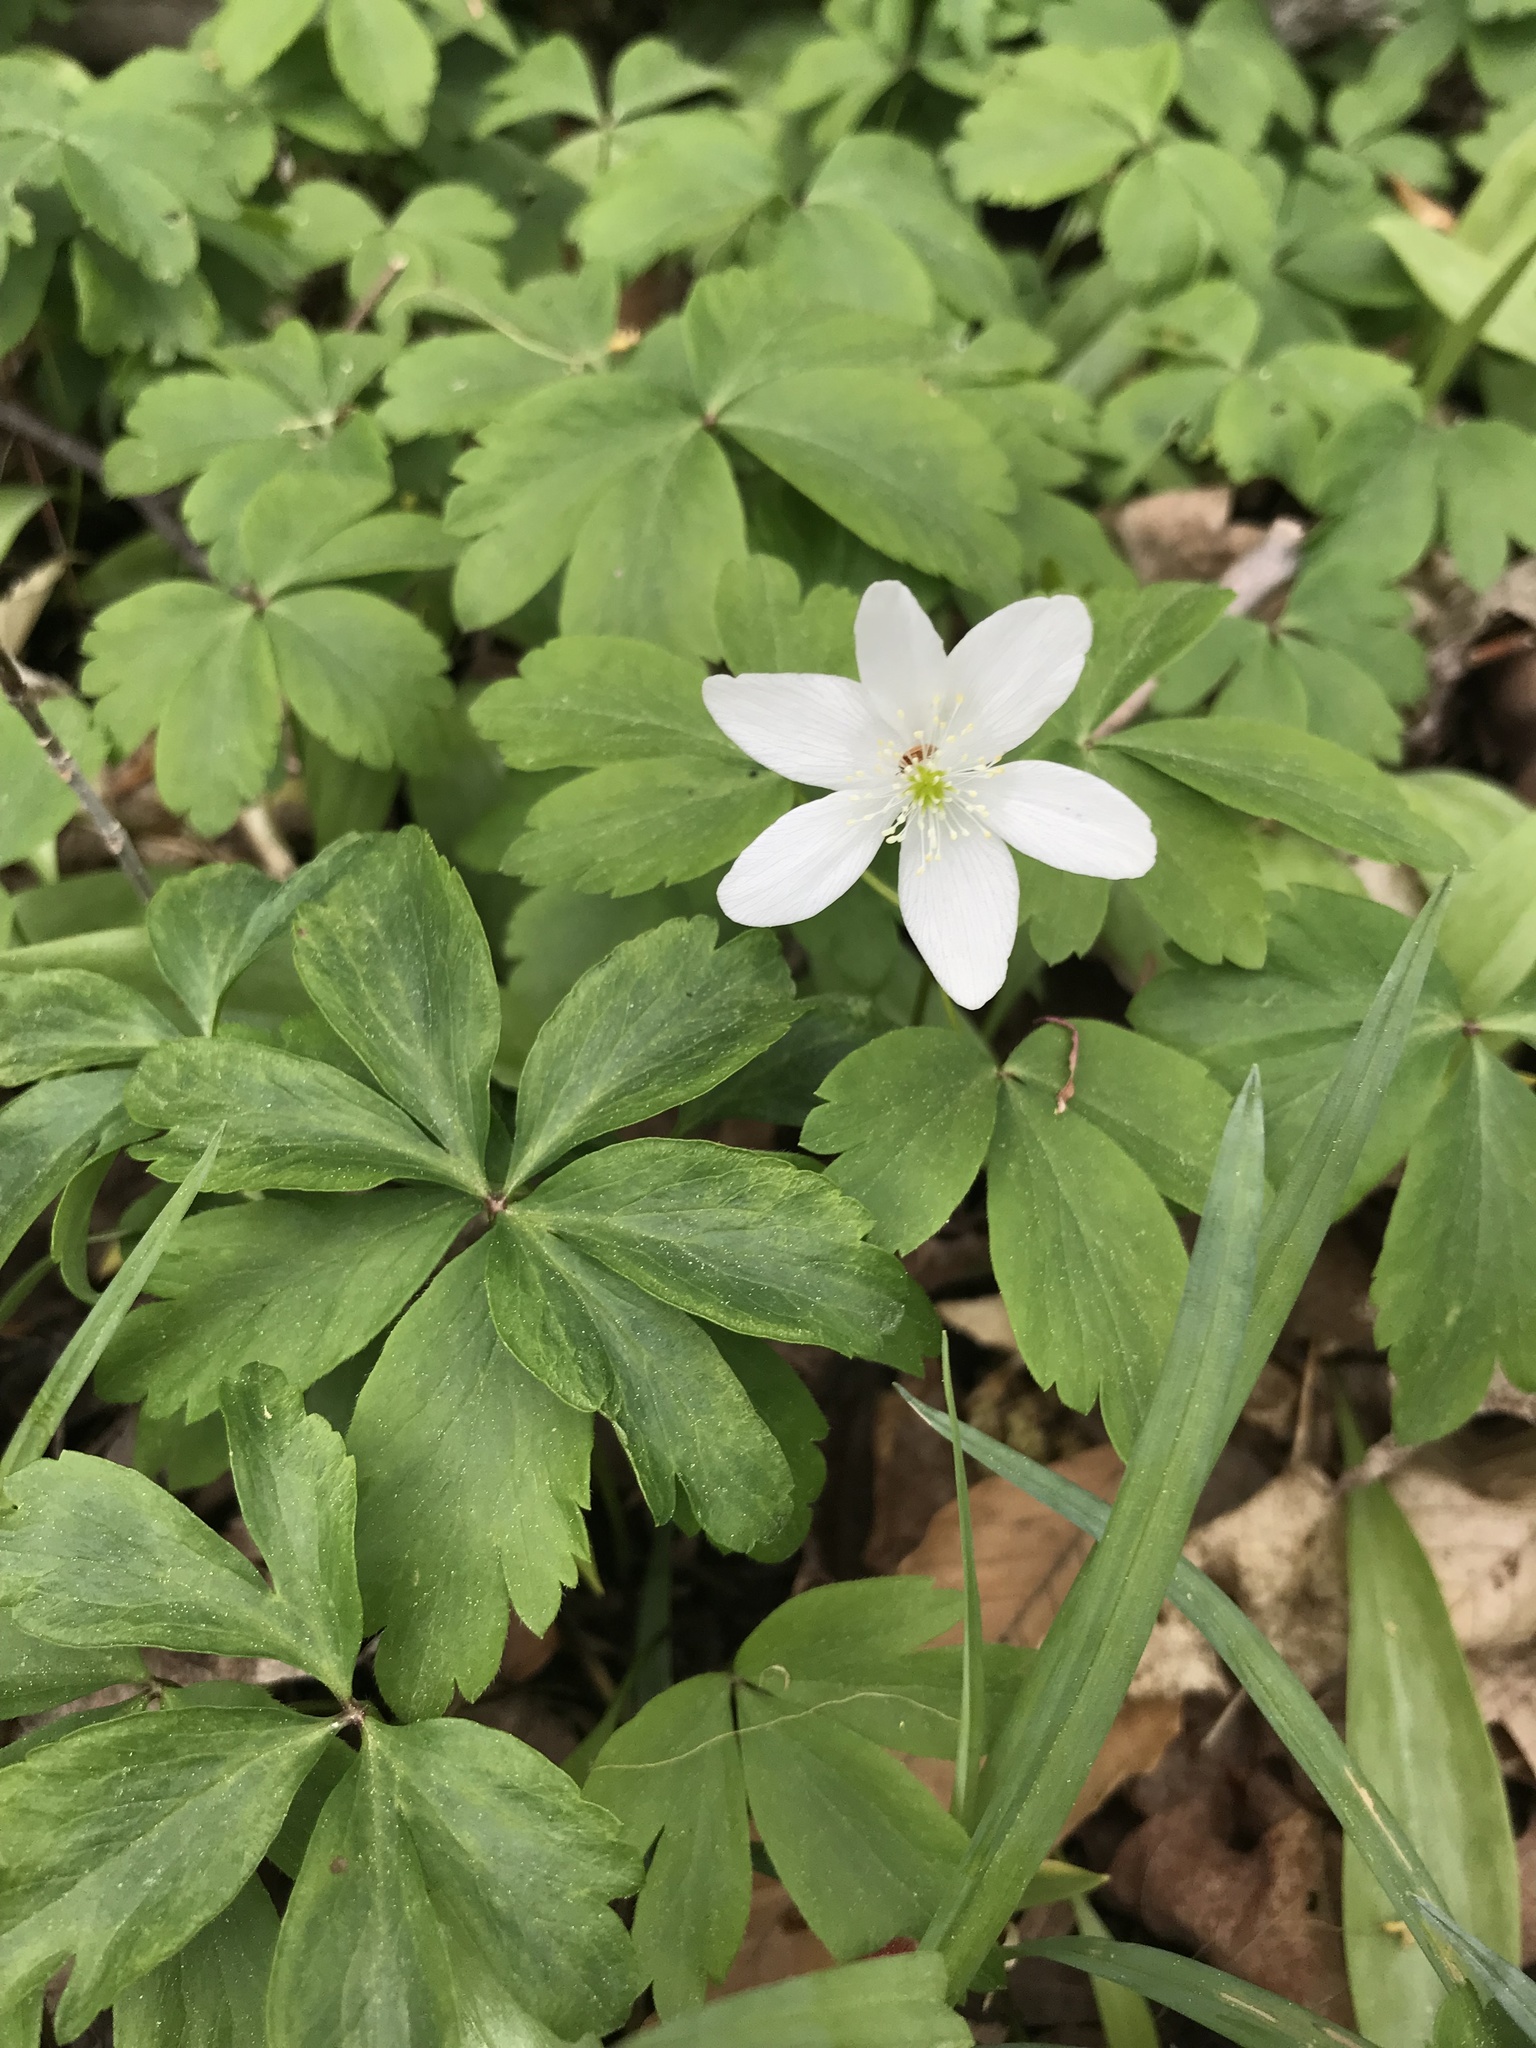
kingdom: Plantae
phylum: Tracheophyta
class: Magnoliopsida
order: Ranunculales
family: Ranunculaceae
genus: Anemone
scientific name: Anemone quinquefolia
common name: Wood anemone
